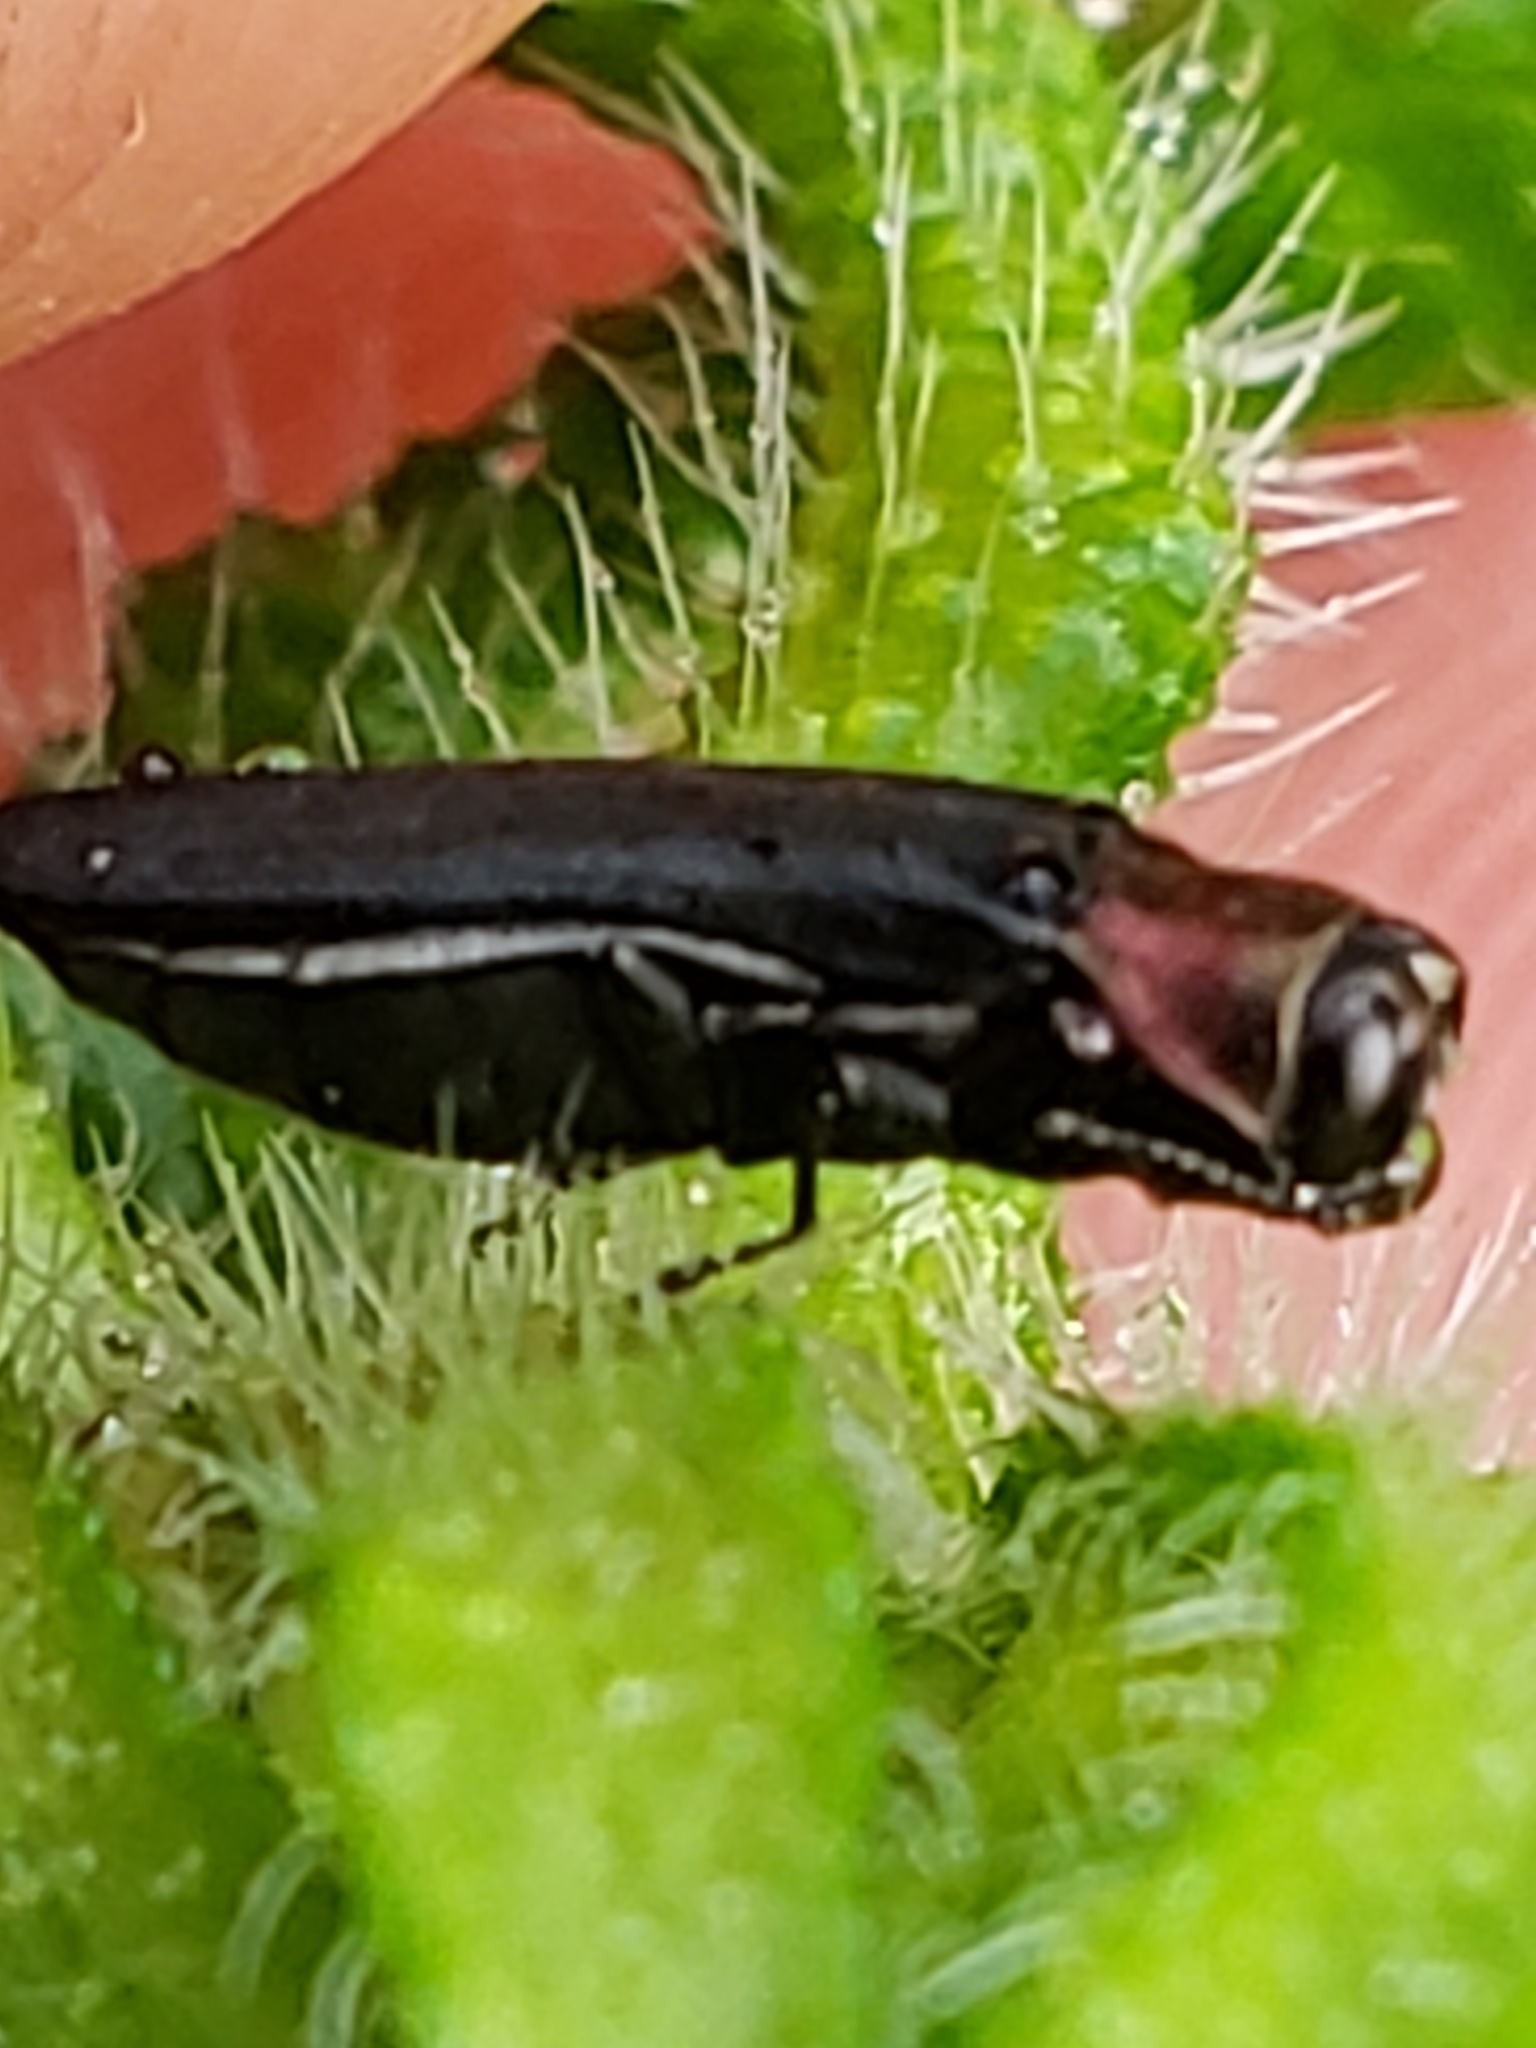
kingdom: Animalia
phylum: Arthropoda
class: Insecta
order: Coleoptera
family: Buprestidae
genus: Agrilus
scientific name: Agrilus ruficollis
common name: Red-necked cane borer beetle
